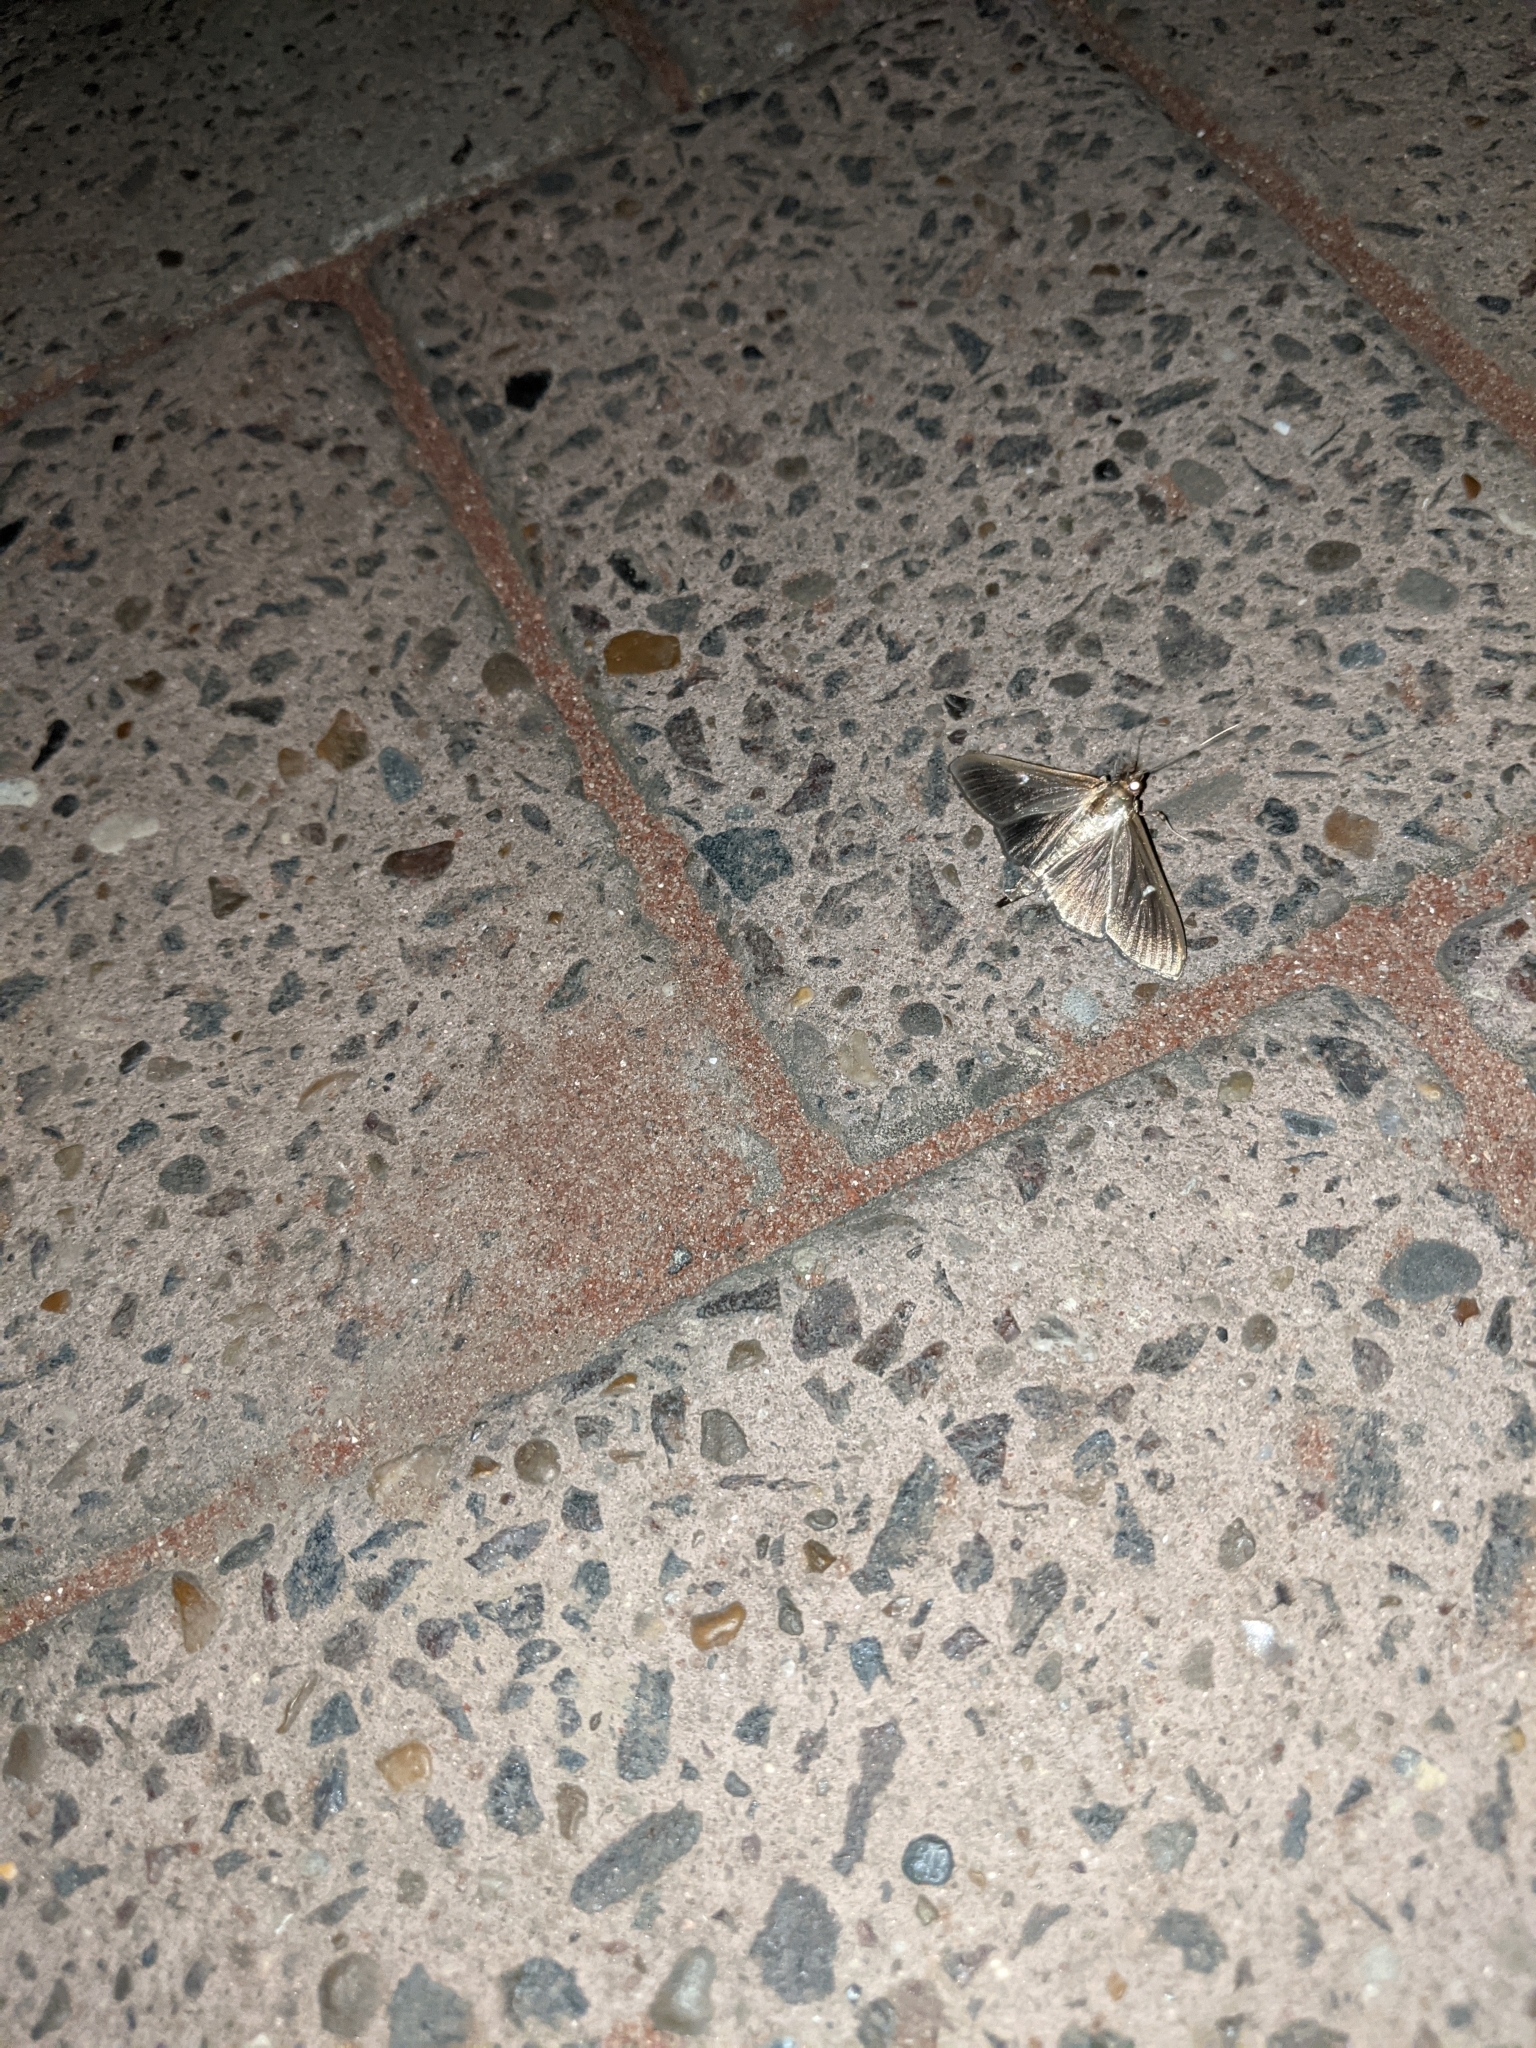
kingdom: Animalia
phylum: Arthropoda
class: Insecta
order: Lepidoptera
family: Crambidae
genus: Cydalima
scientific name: Cydalima perspectalis
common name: Box tree moth
